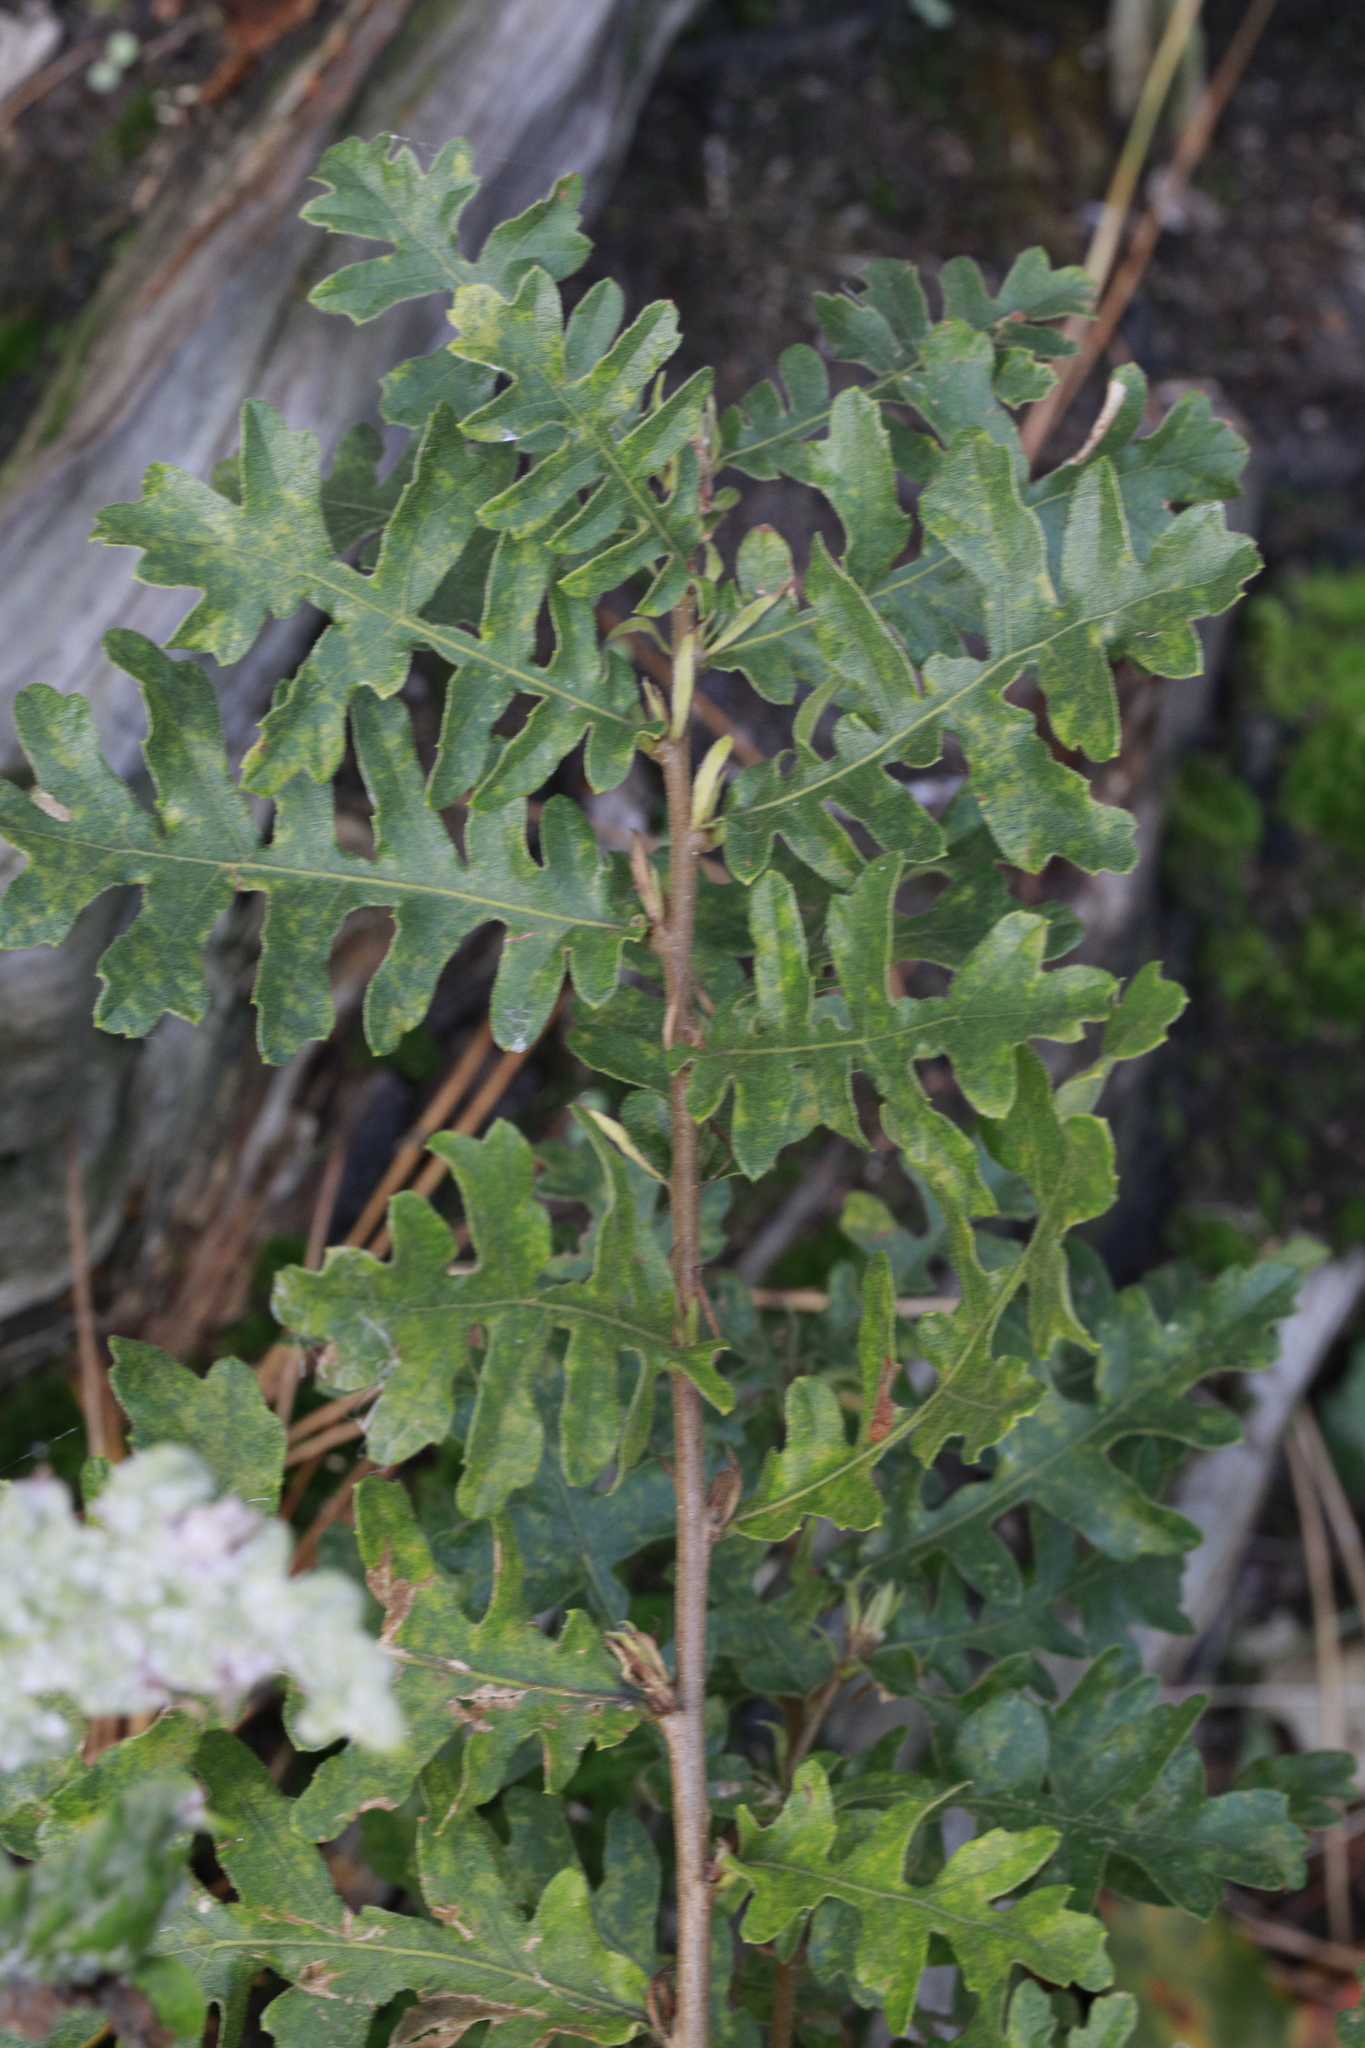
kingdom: Plantae
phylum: Tracheophyta
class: Magnoliopsida
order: Fagales
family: Fagaceae
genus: Quercus
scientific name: Quercus cerris
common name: Turkey oak
